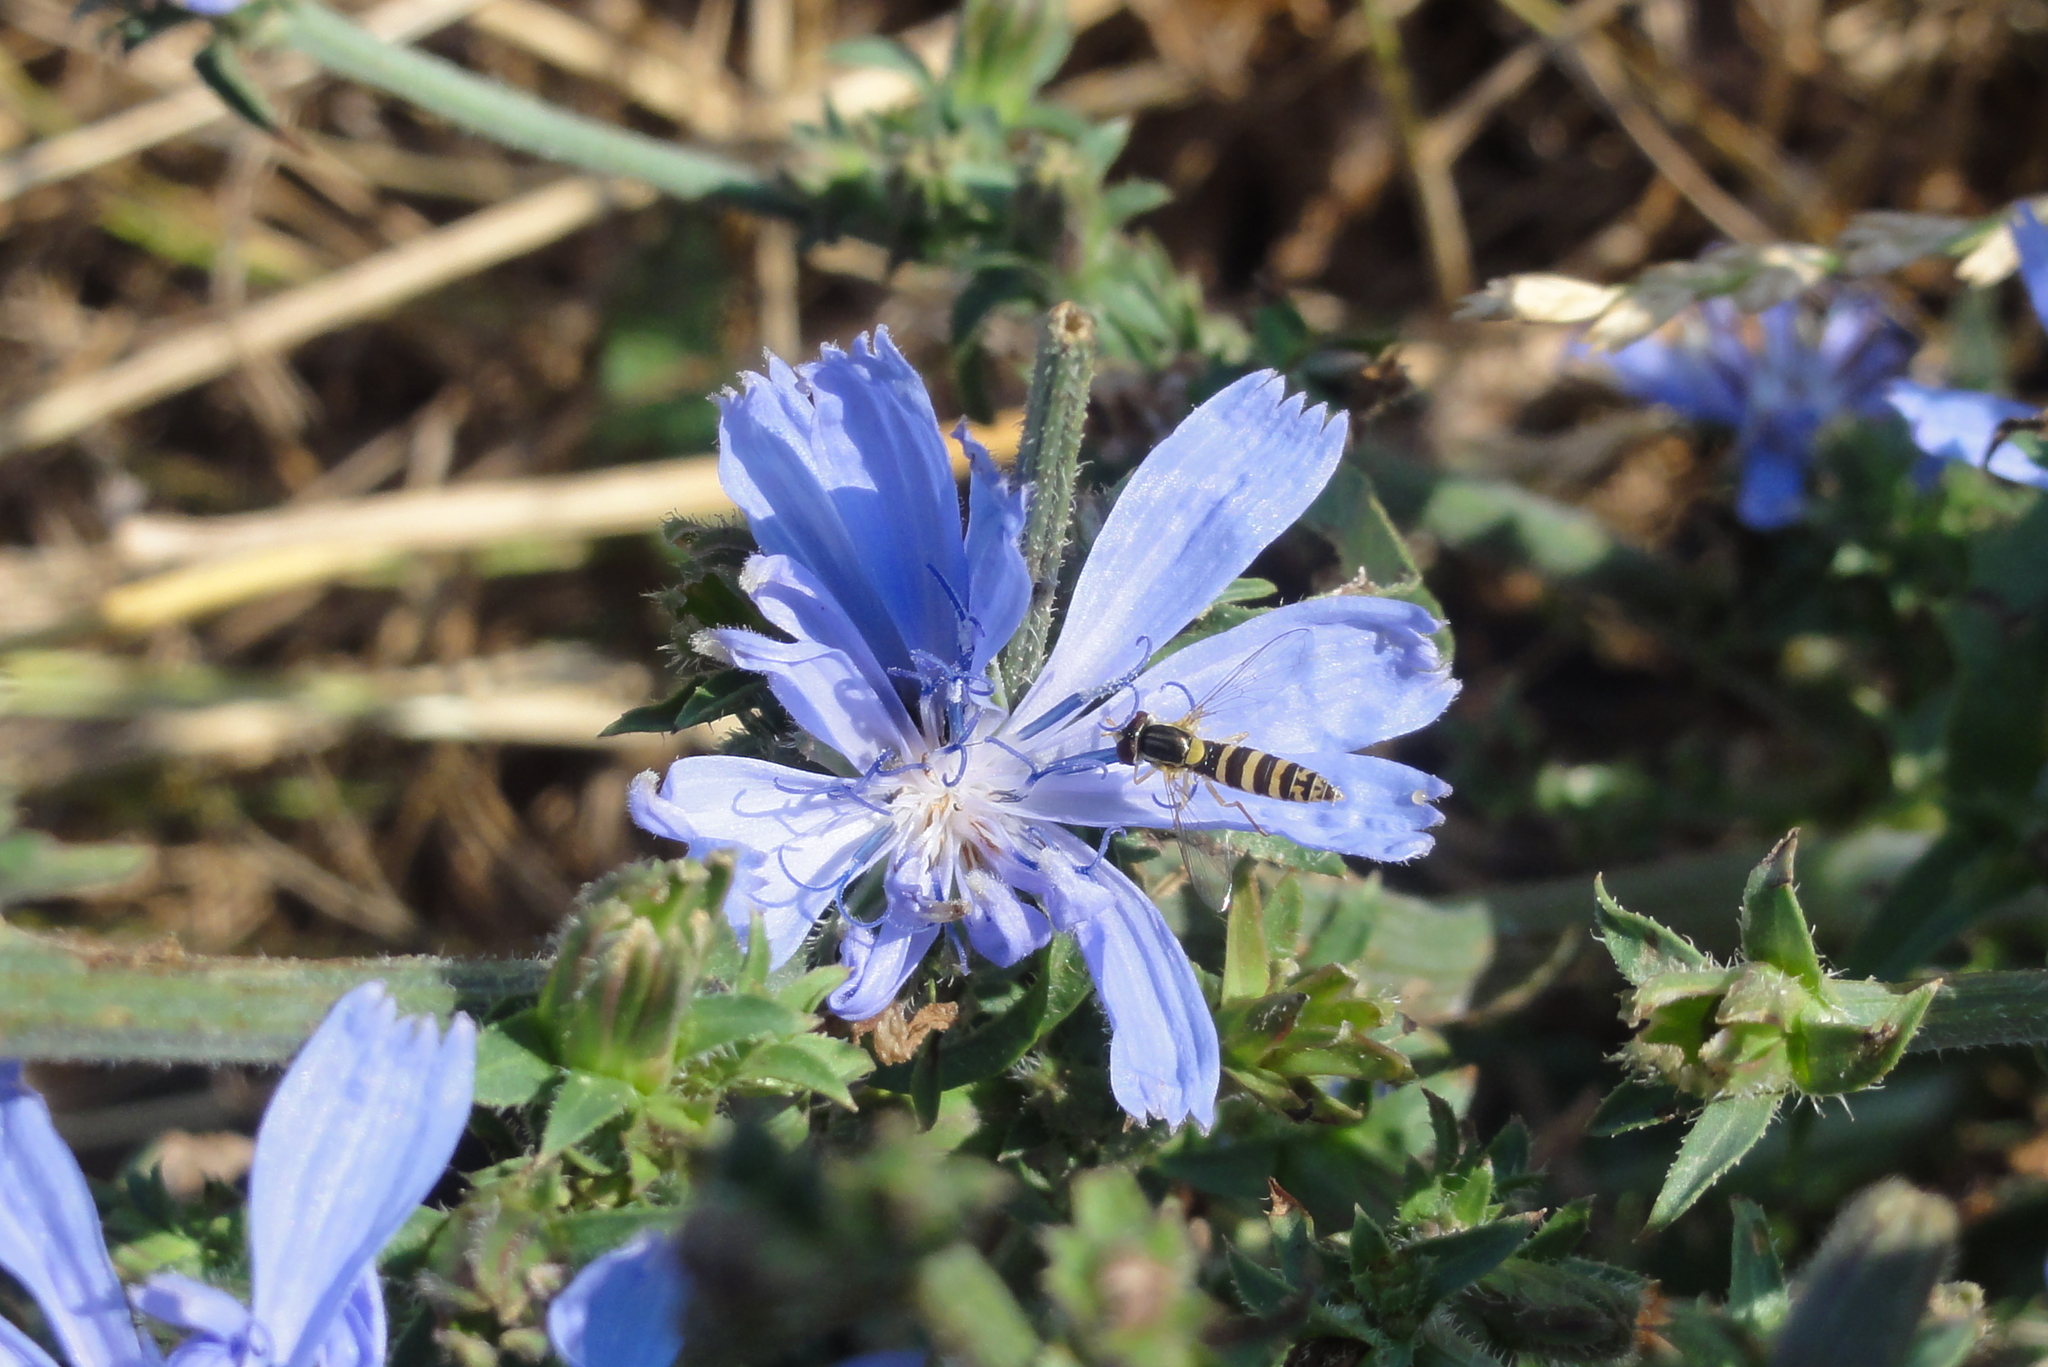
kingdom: Plantae
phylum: Tracheophyta
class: Magnoliopsida
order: Asterales
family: Asteraceae
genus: Cichorium
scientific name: Cichorium intybus
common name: Chicory
